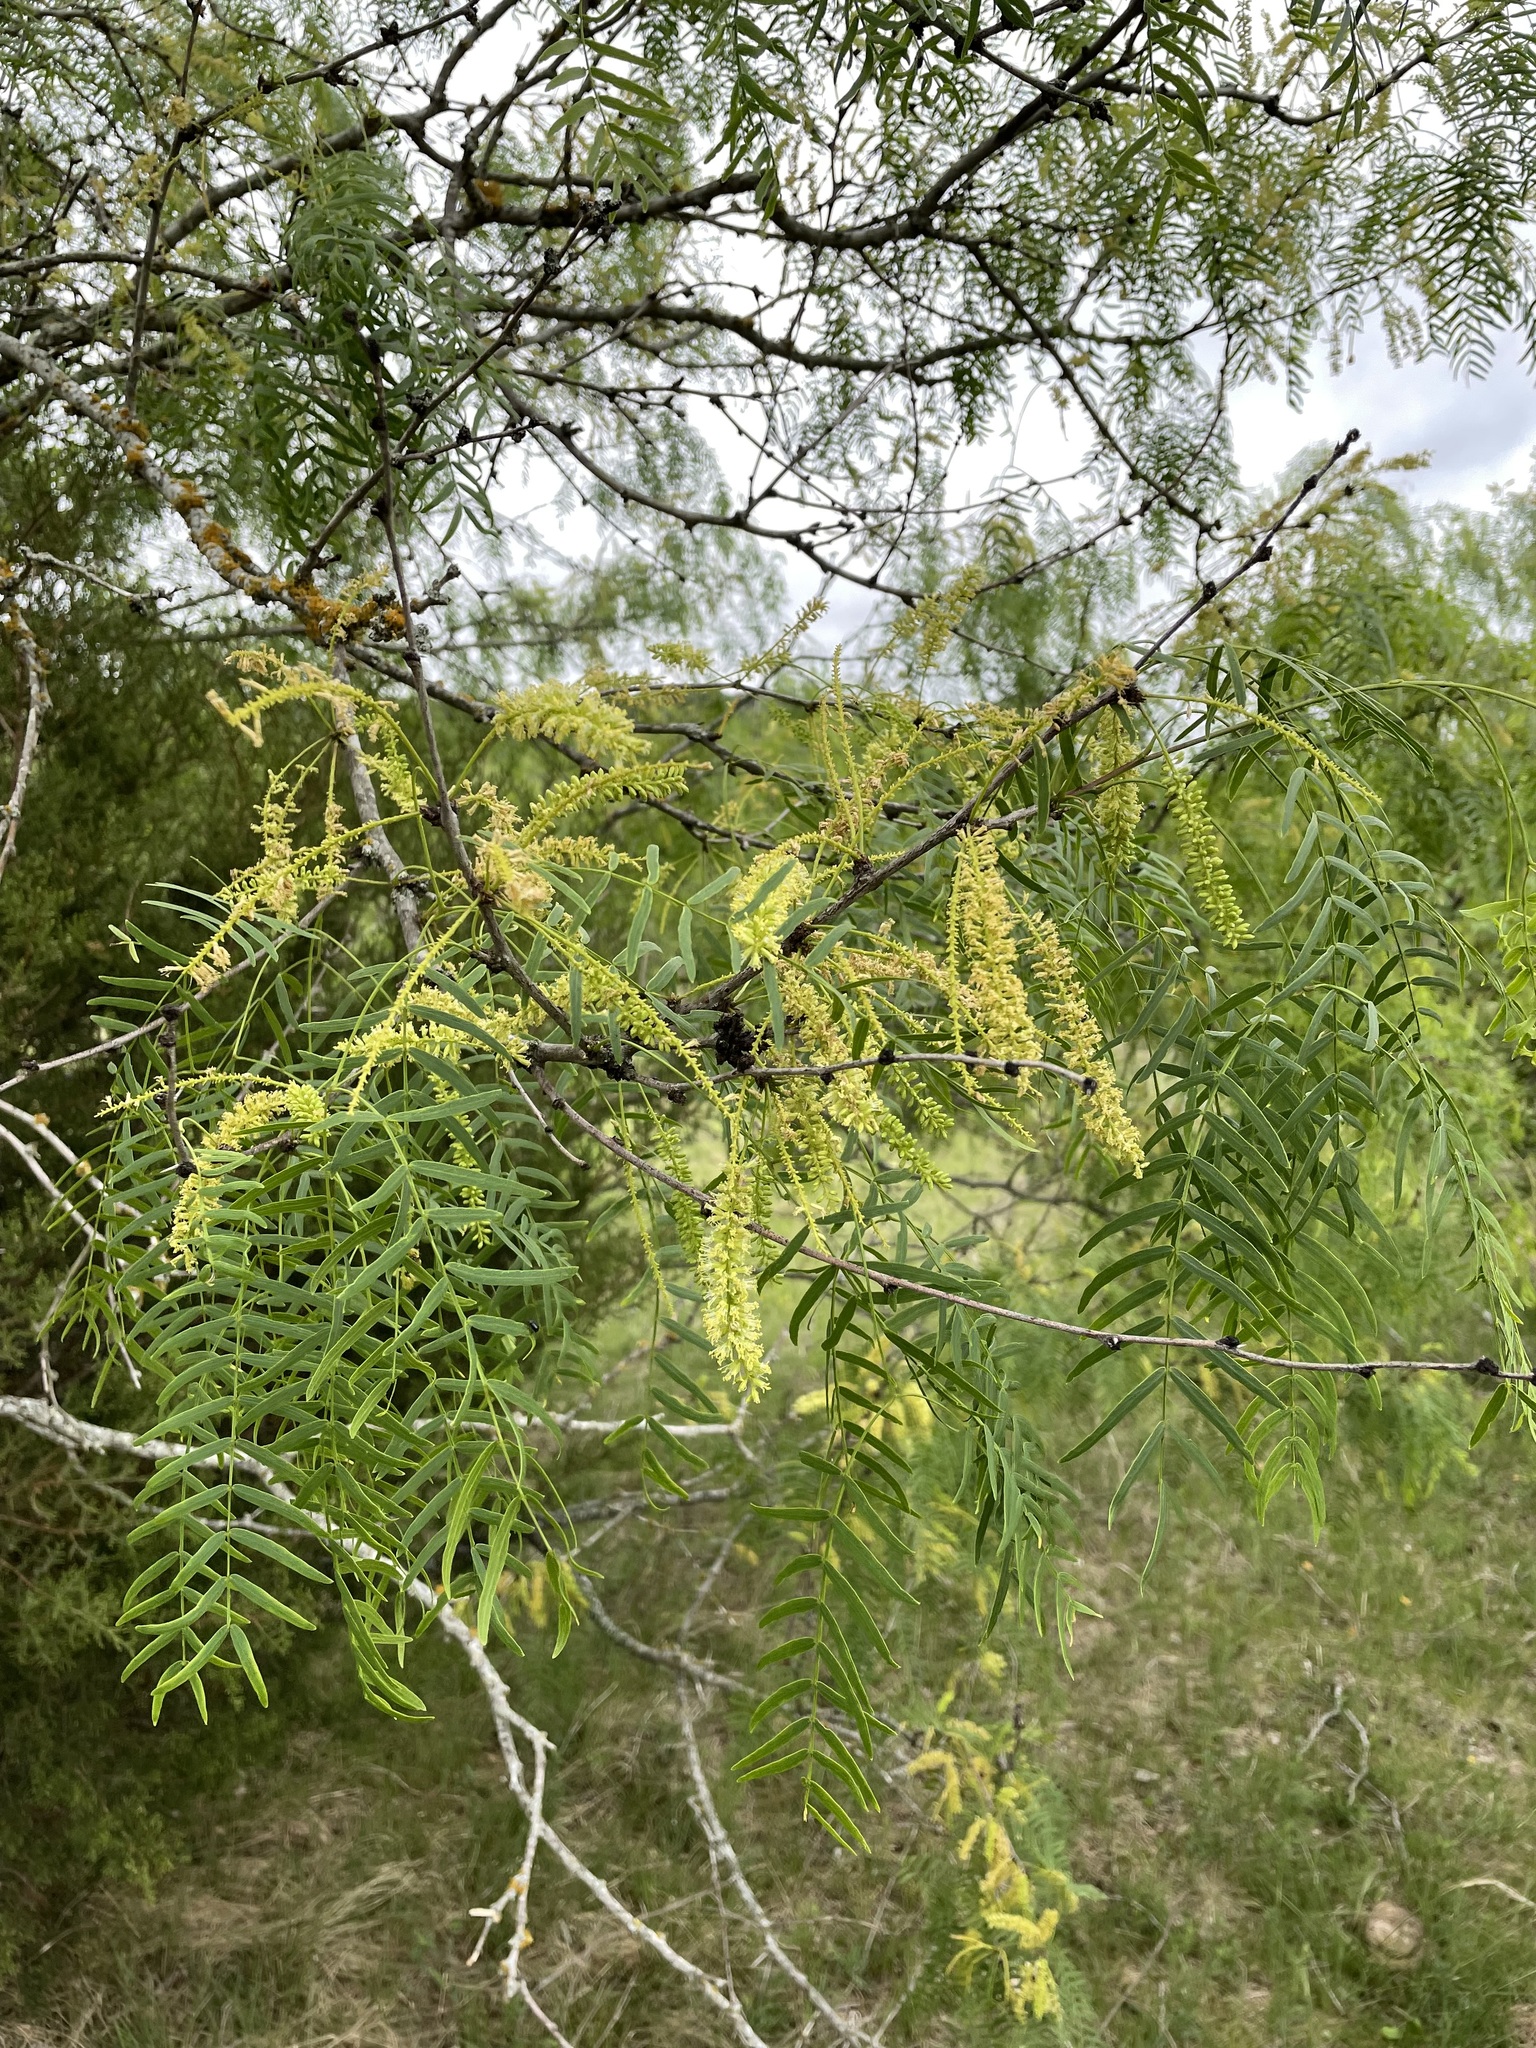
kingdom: Plantae
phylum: Tracheophyta
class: Magnoliopsida
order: Fabales
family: Fabaceae
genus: Prosopis
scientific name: Prosopis glandulosa
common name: Honey mesquite
